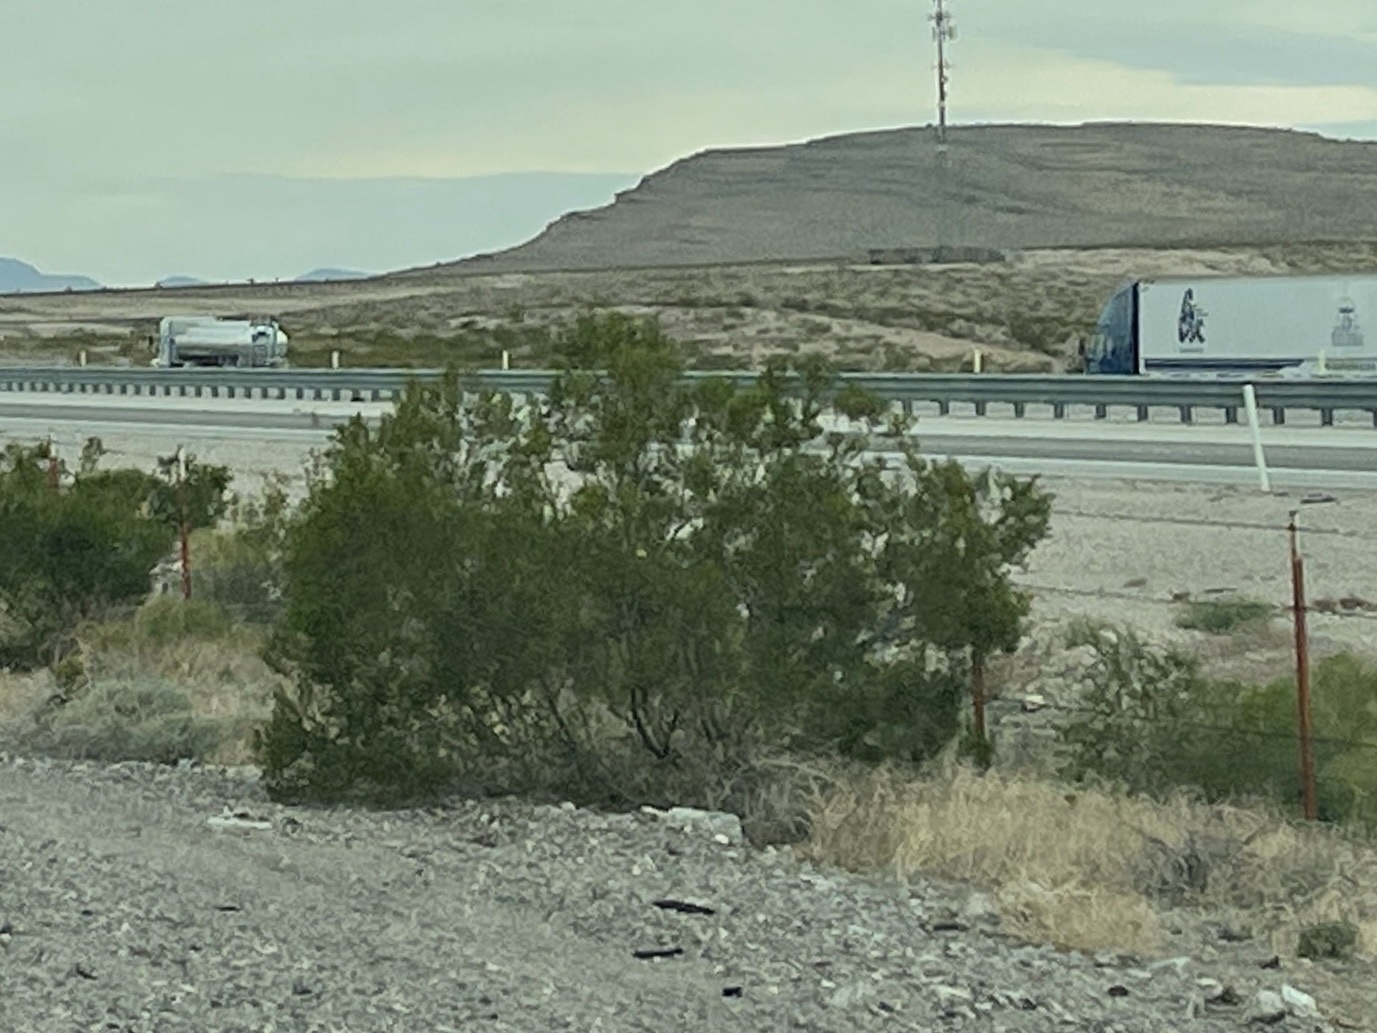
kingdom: Plantae
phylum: Tracheophyta
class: Magnoliopsida
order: Zygophyllales
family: Zygophyllaceae
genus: Larrea
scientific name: Larrea tridentata
